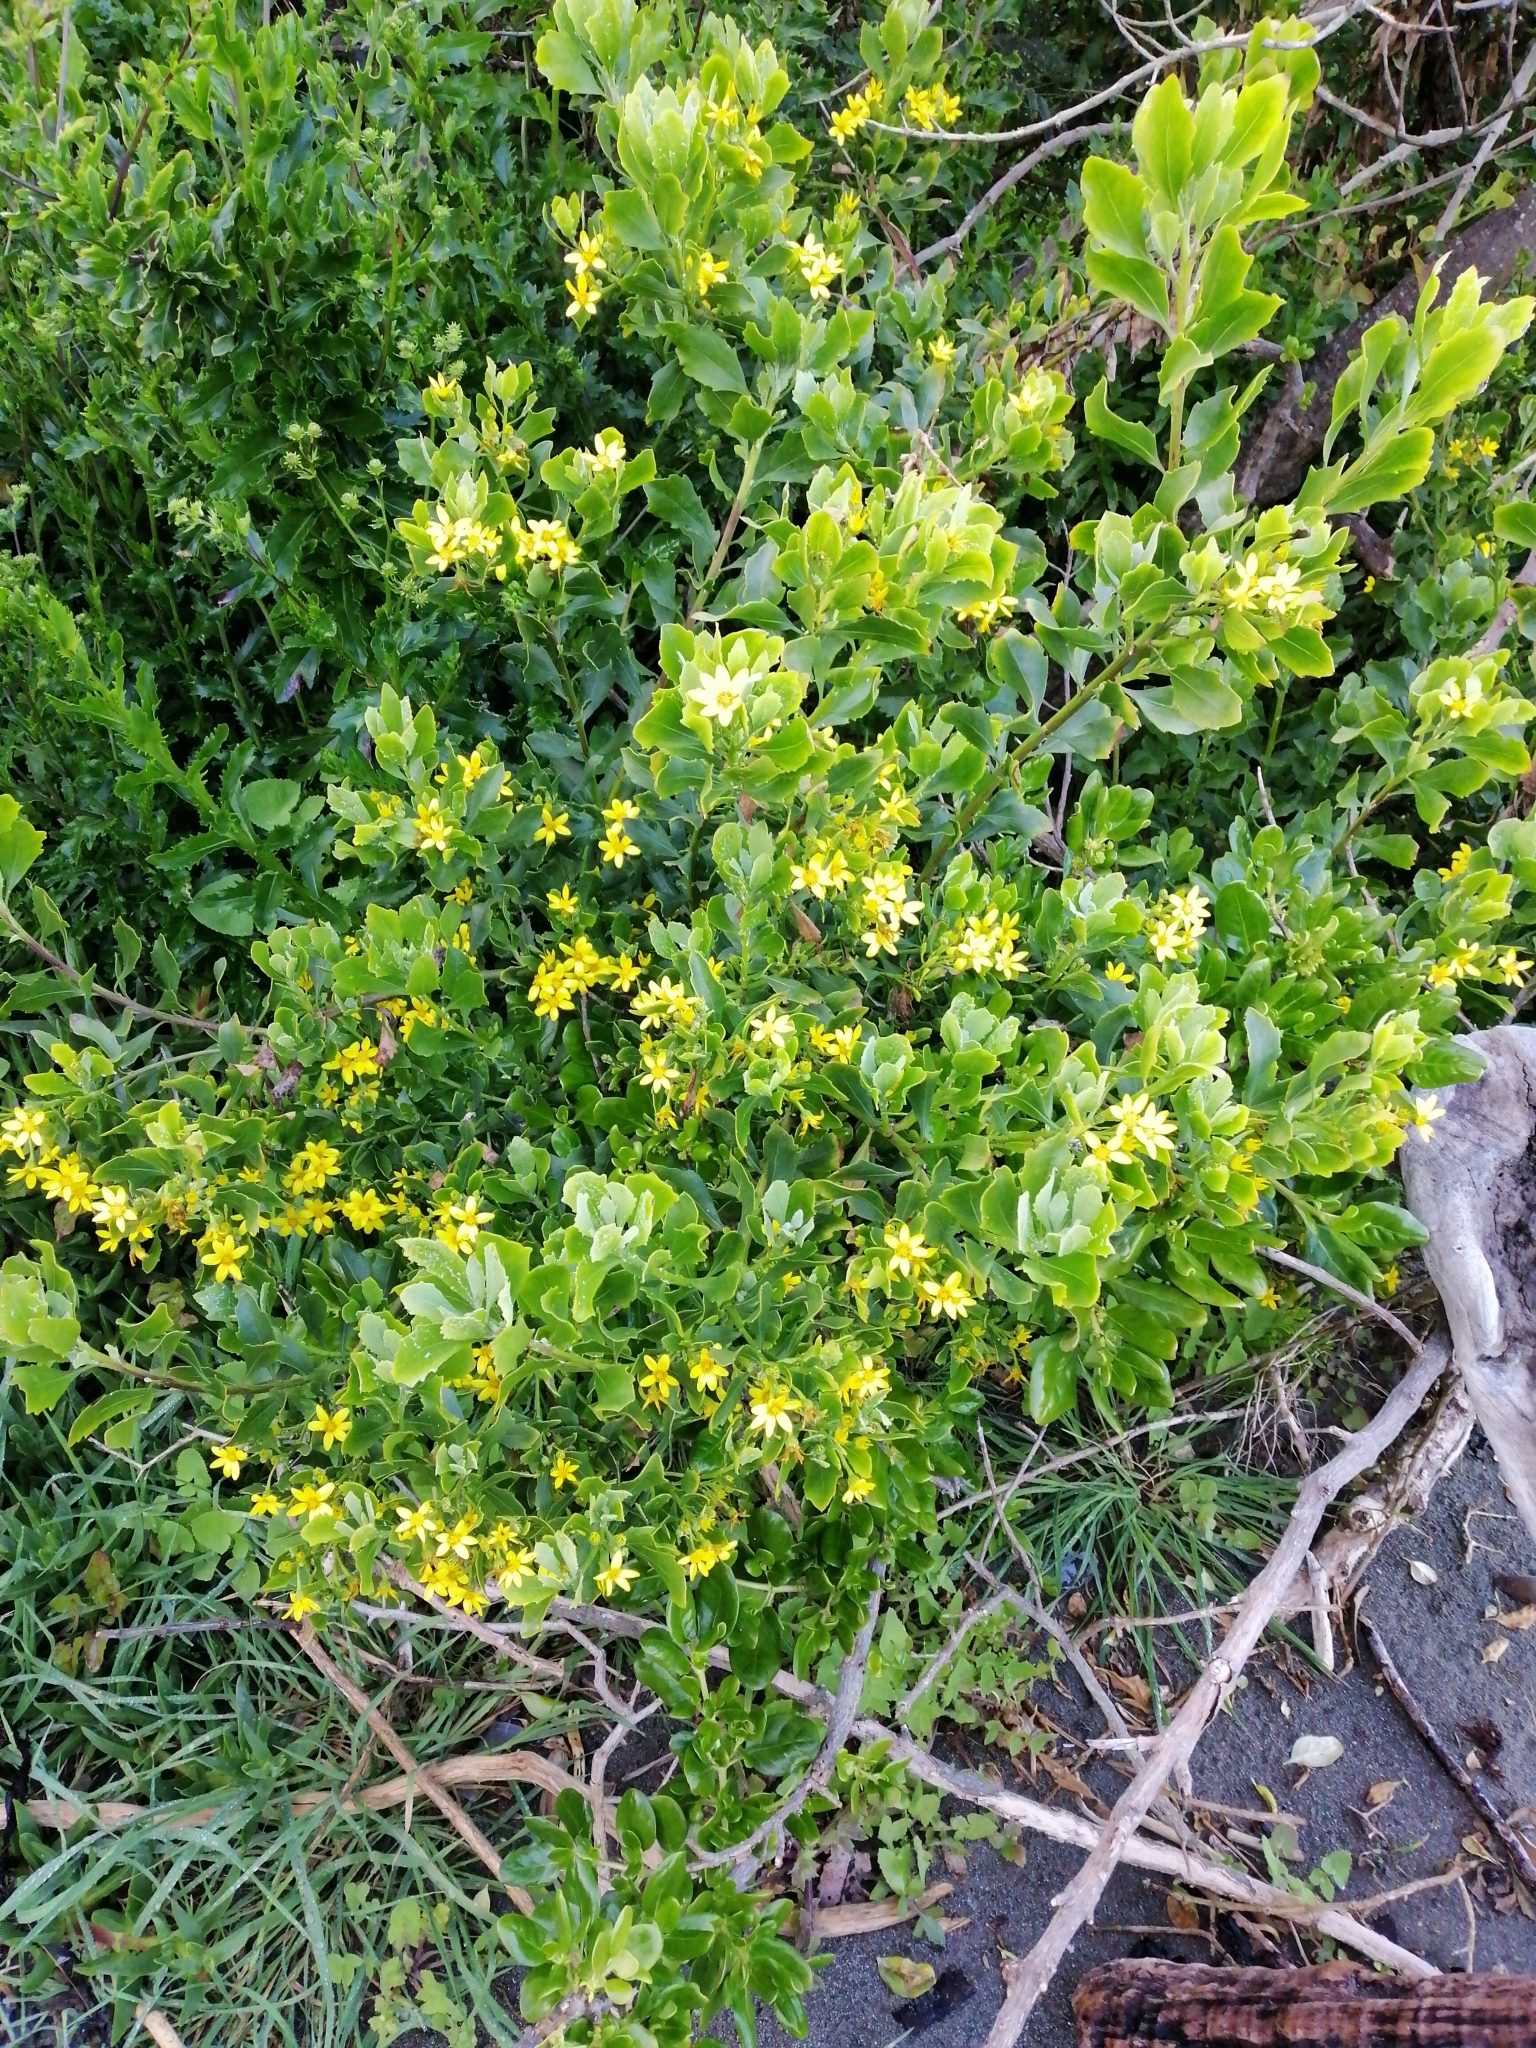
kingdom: Plantae
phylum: Tracheophyta
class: Magnoliopsida
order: Asterales
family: Asteraceae
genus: Osteospermum
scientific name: Osteospermum moniliferum
